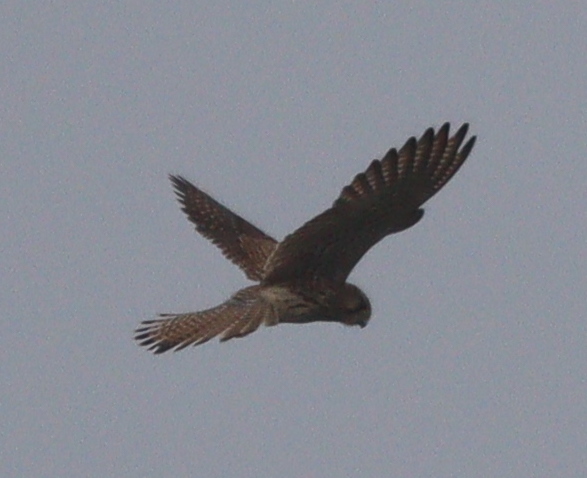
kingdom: Animalia
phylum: Chordata
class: Aves
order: Falconiformes
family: Falconidae
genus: Falco
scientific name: Falco tinnunculus
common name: Common kestrel
